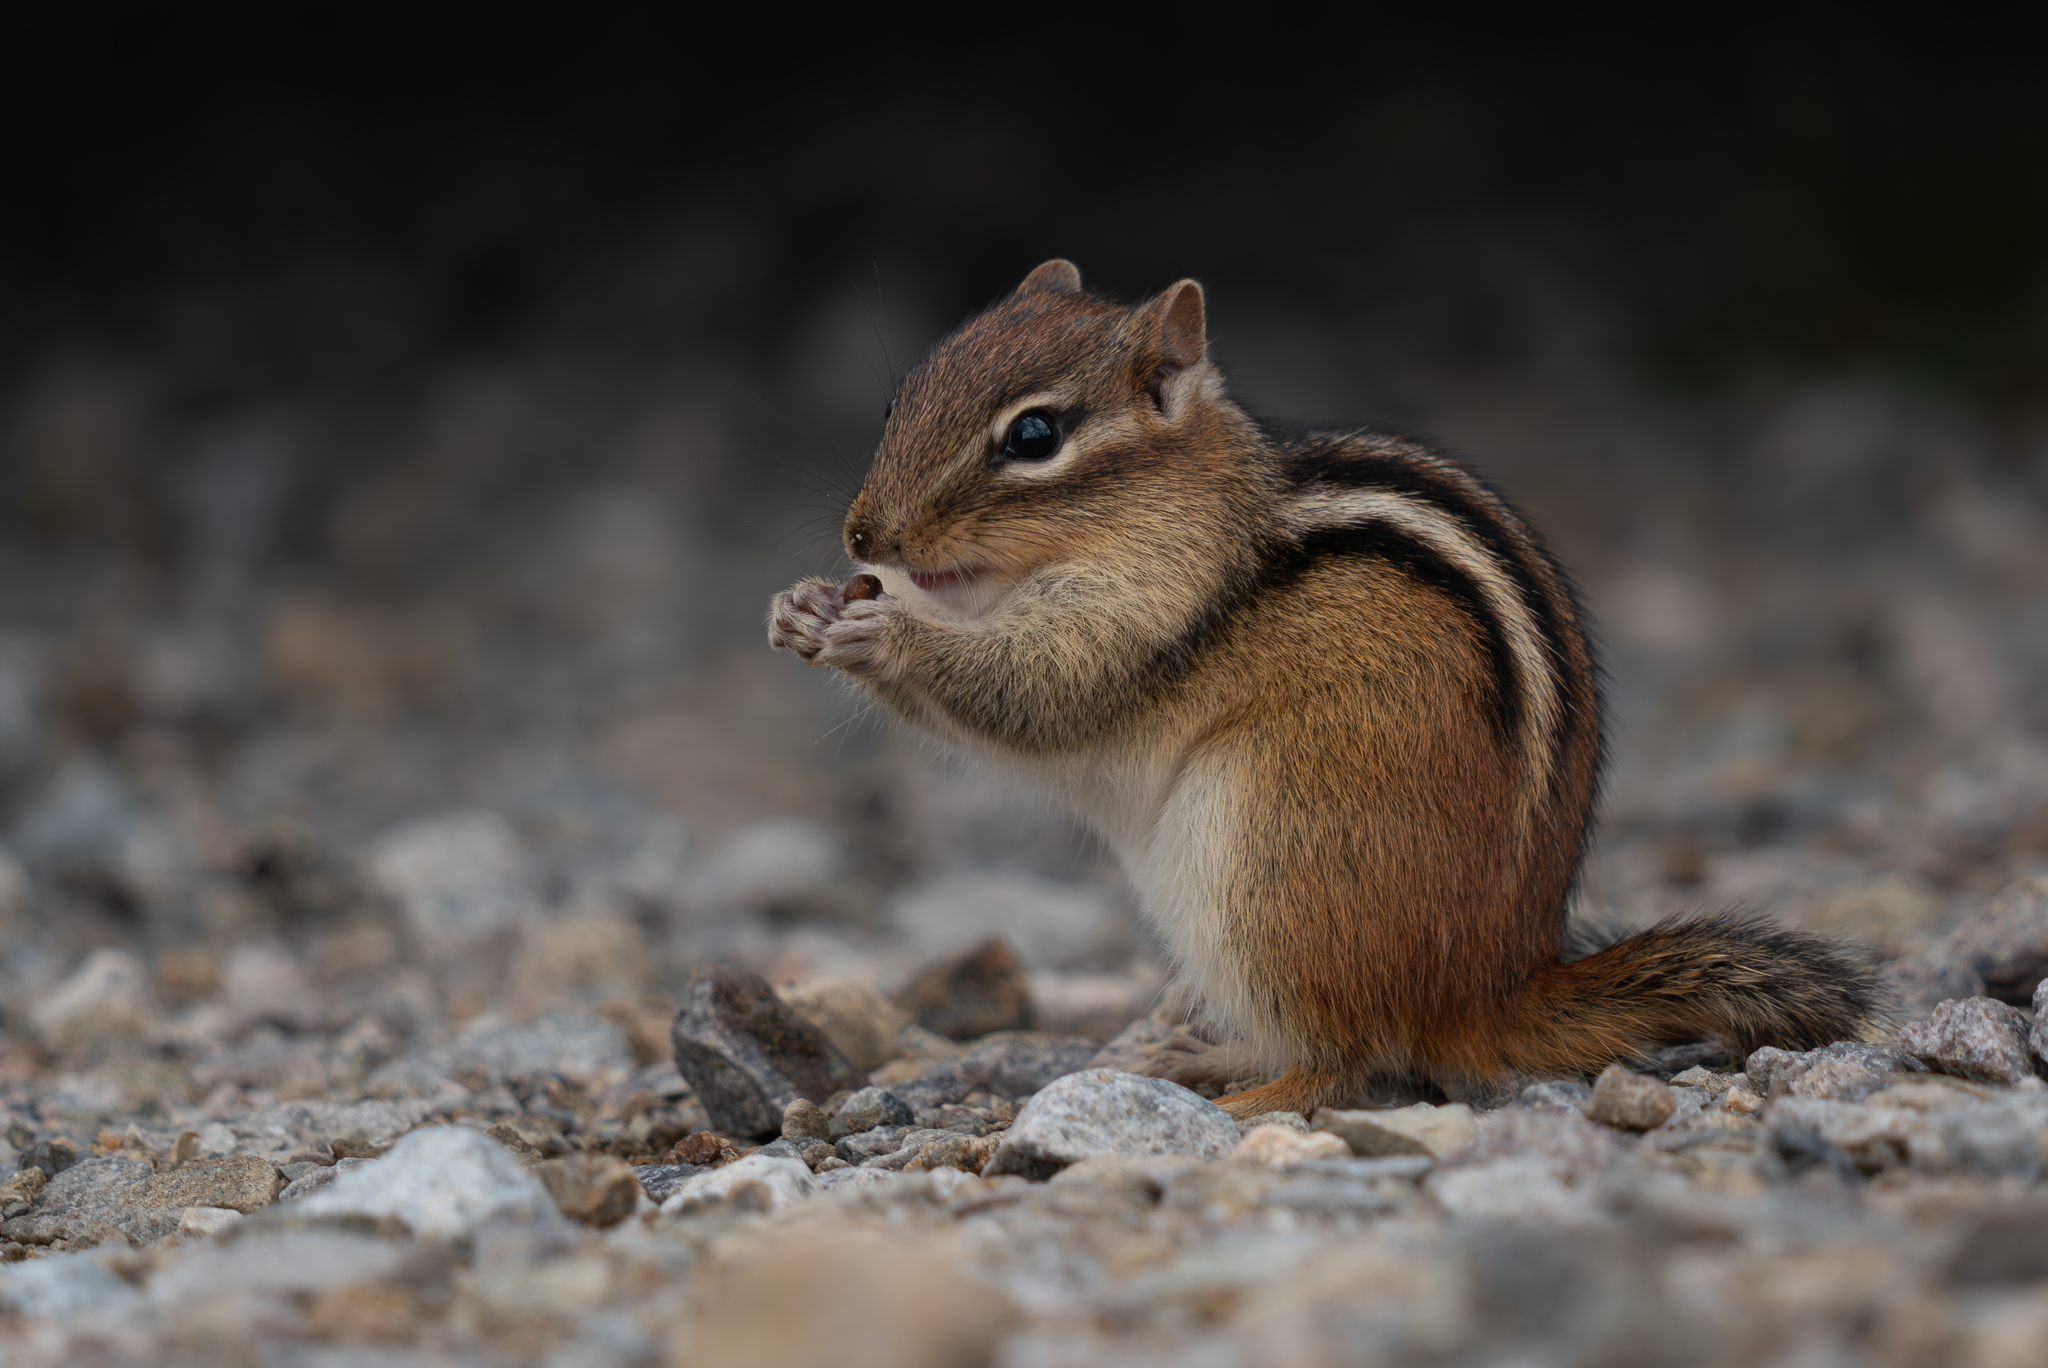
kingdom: Animalia
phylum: Chordata
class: Mammalia
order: Rodentia
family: Sciuridae
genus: Tamias
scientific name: Tamias striatus
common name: Eastern chipmunk
